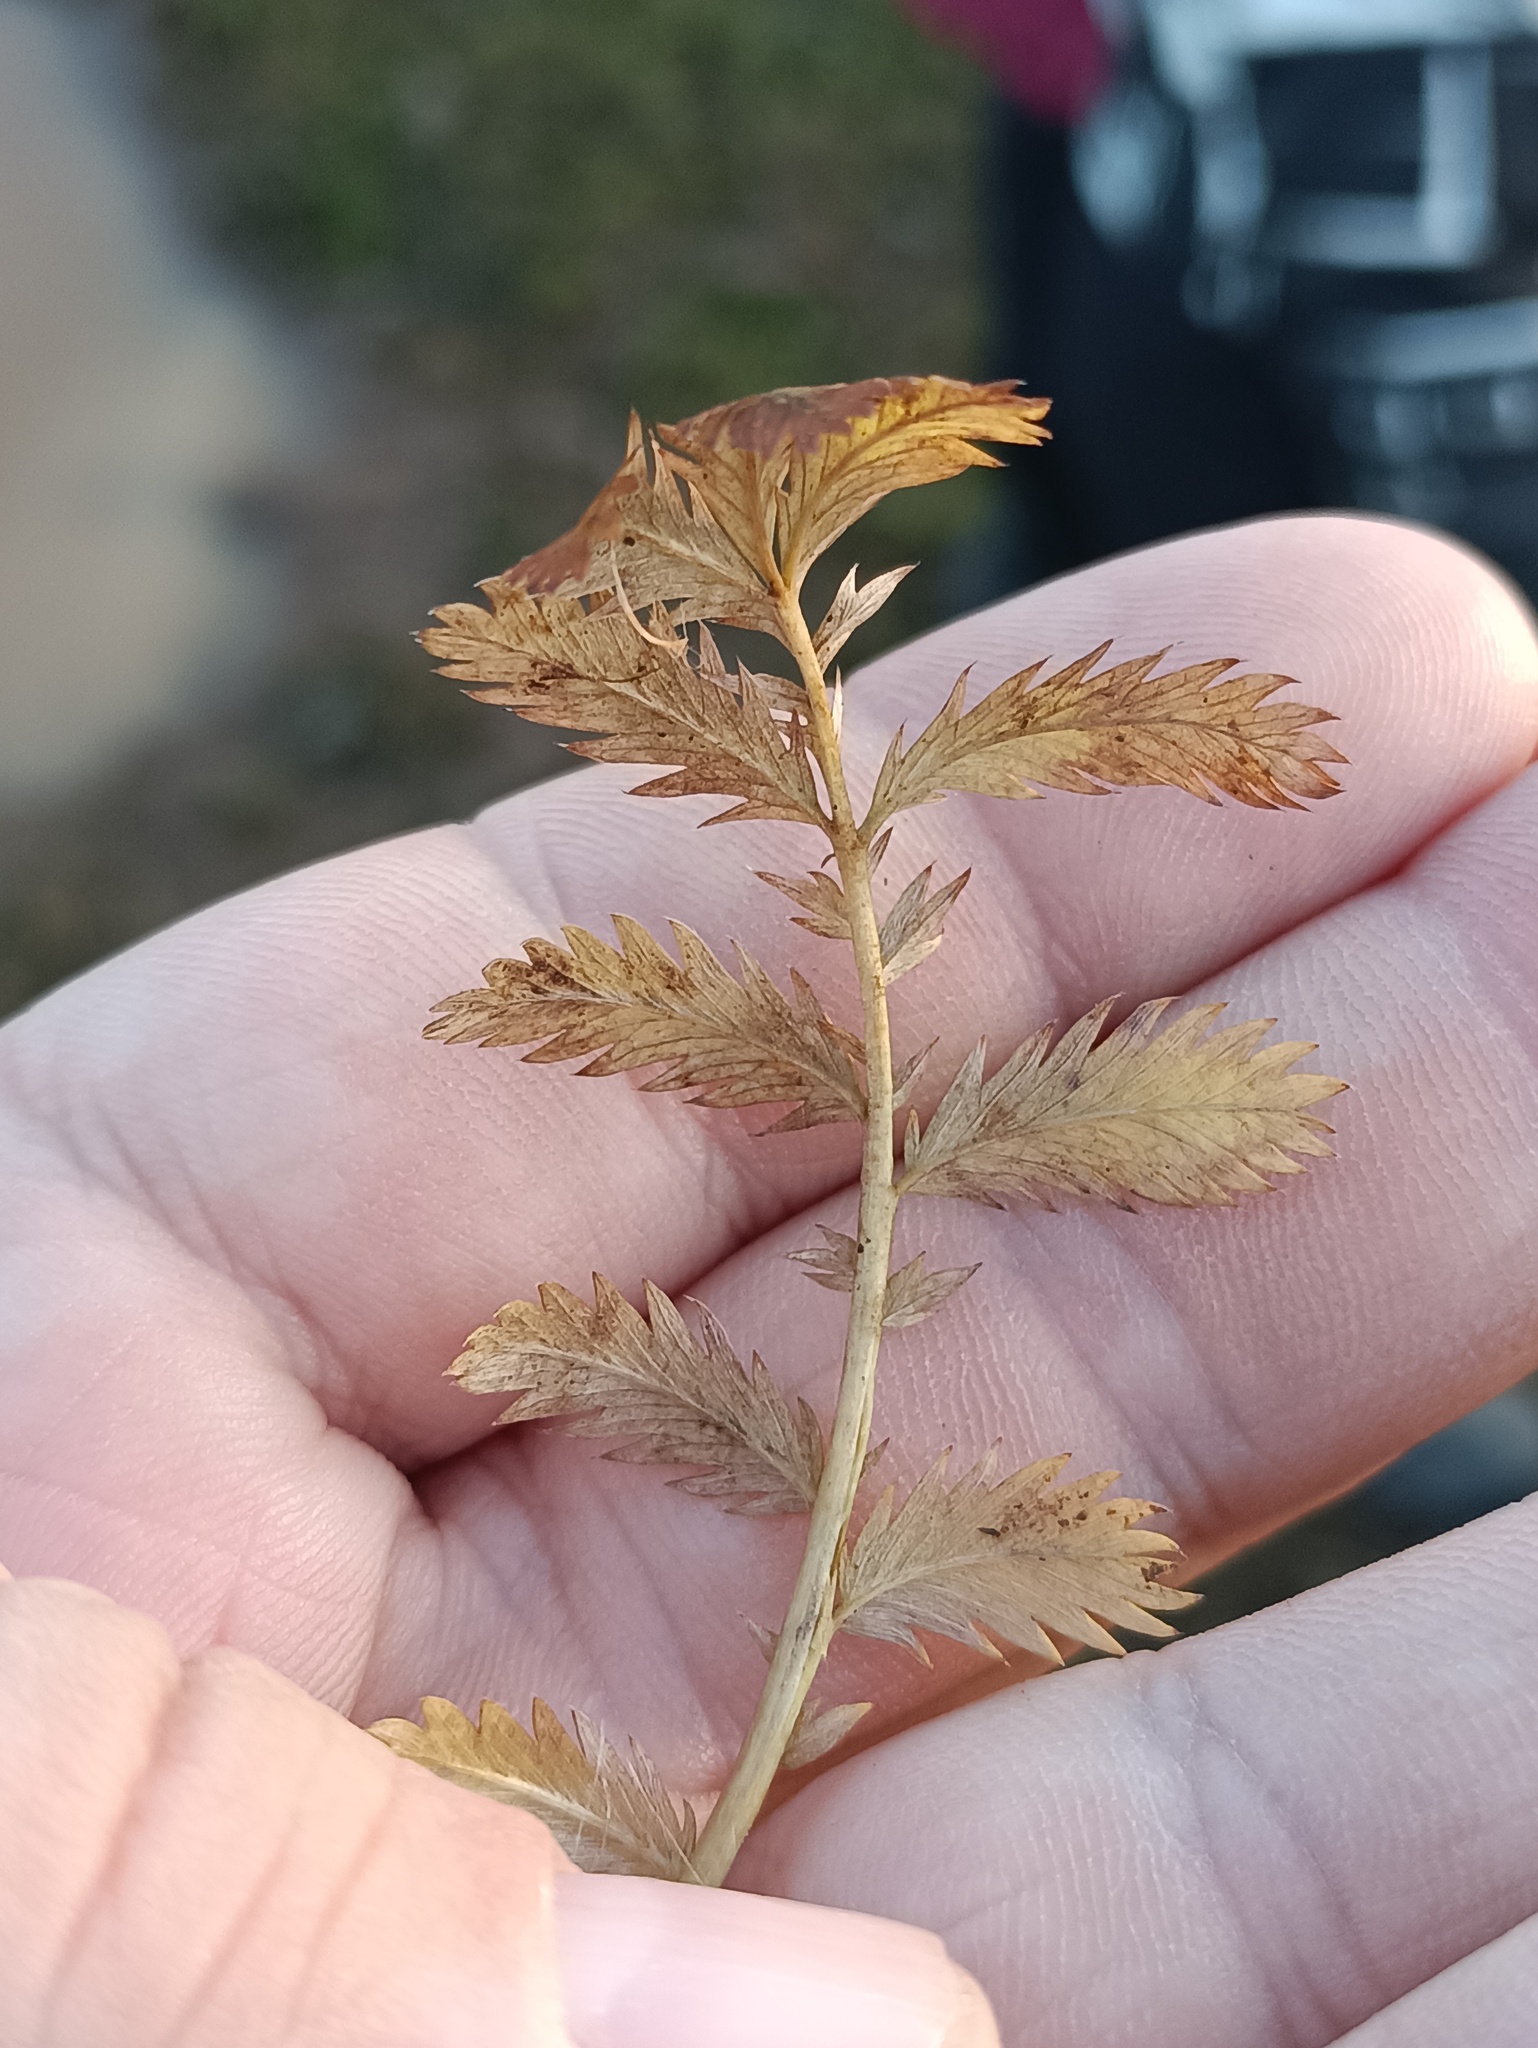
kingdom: Plantae
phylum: Tracheophyta
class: Magnoliopsida
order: Rosales
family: Rosaceae
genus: Argentina
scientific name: Argentina anserina
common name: Common silverweed
